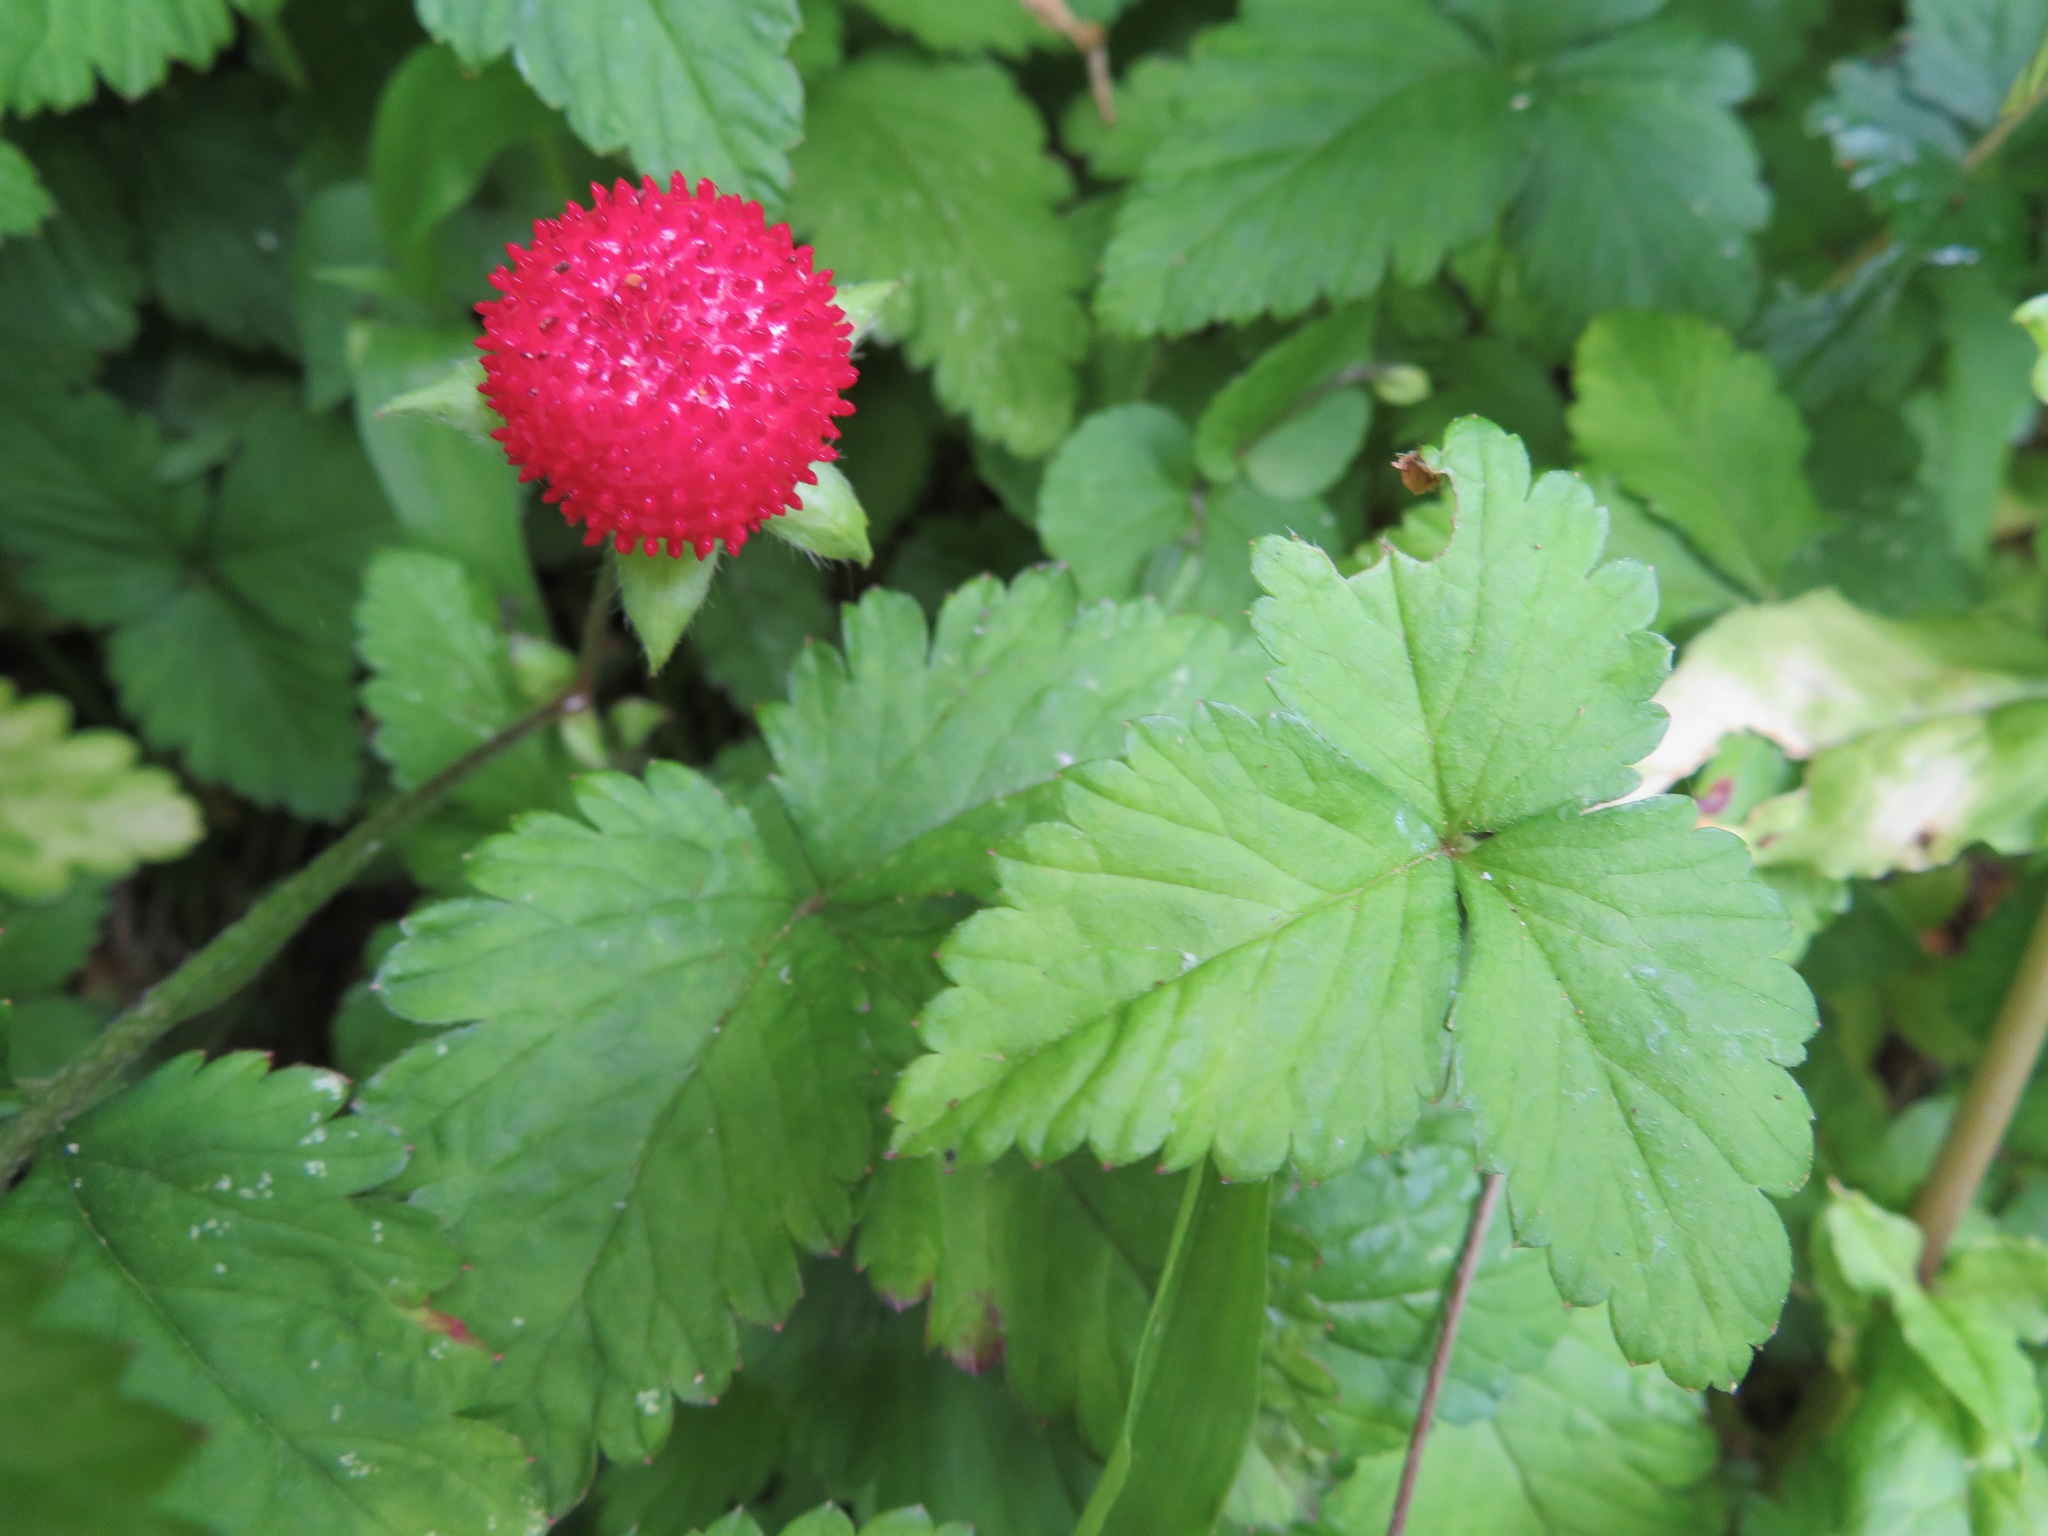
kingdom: Plantae
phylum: Tracheophyta
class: Magnoliopsida
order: Rosales
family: Rosaceae
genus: Potentilla
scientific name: Potentilla indica
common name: Yellow-flowered strawberry
